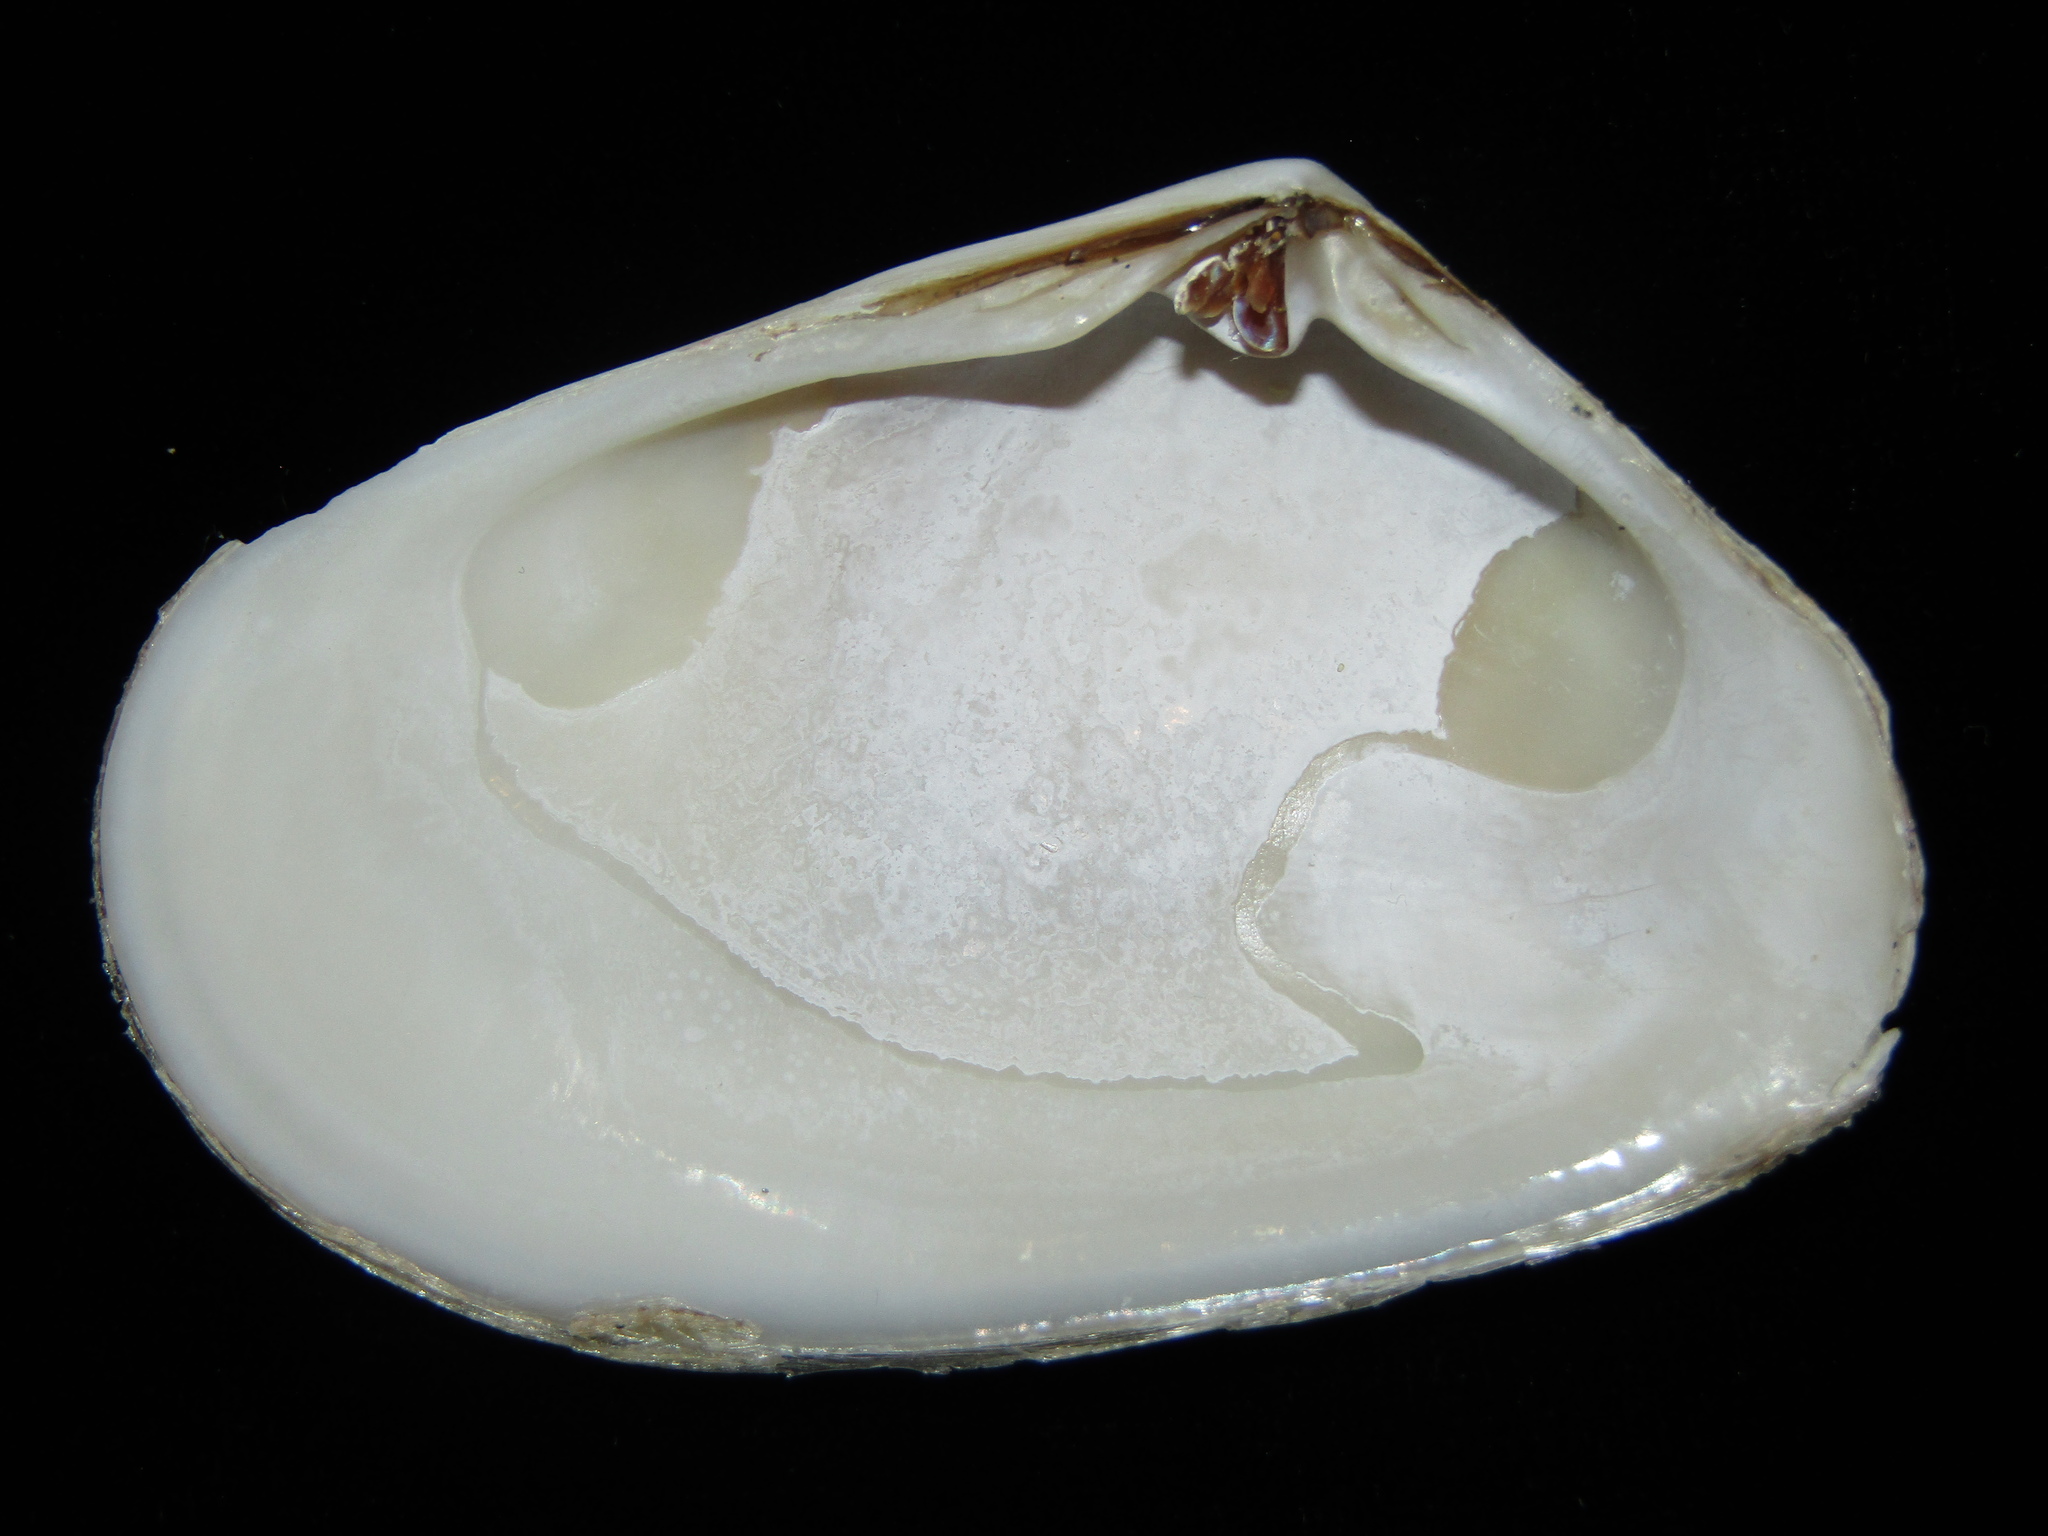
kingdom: Animalia
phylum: Mollusca
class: Bivalvia
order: Venerida
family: Mesodesmatidae
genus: Paphies
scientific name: Paphies subtriangulata
